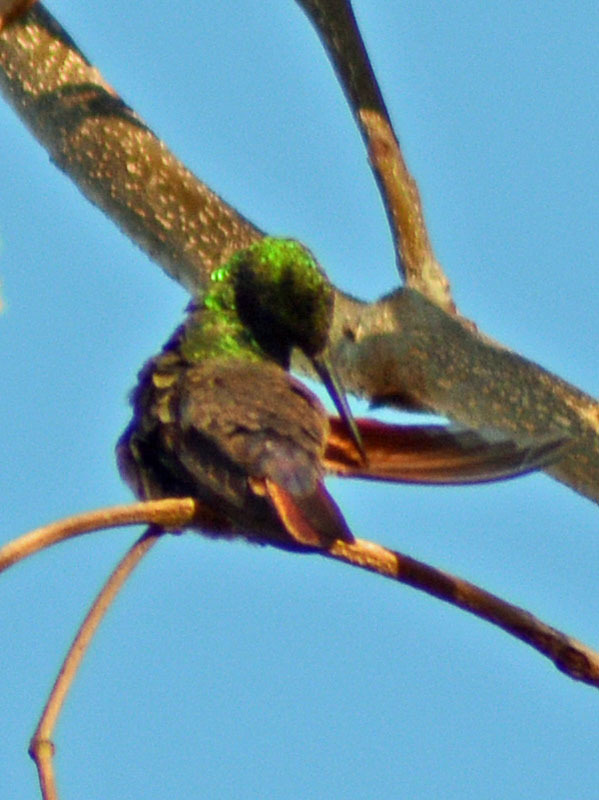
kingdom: Animalia
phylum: Chordata
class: Aves
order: Apodiformes
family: Trochilidae
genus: Saucerottia
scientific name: Saucerottia beryllina
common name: Berylline hummingbird
